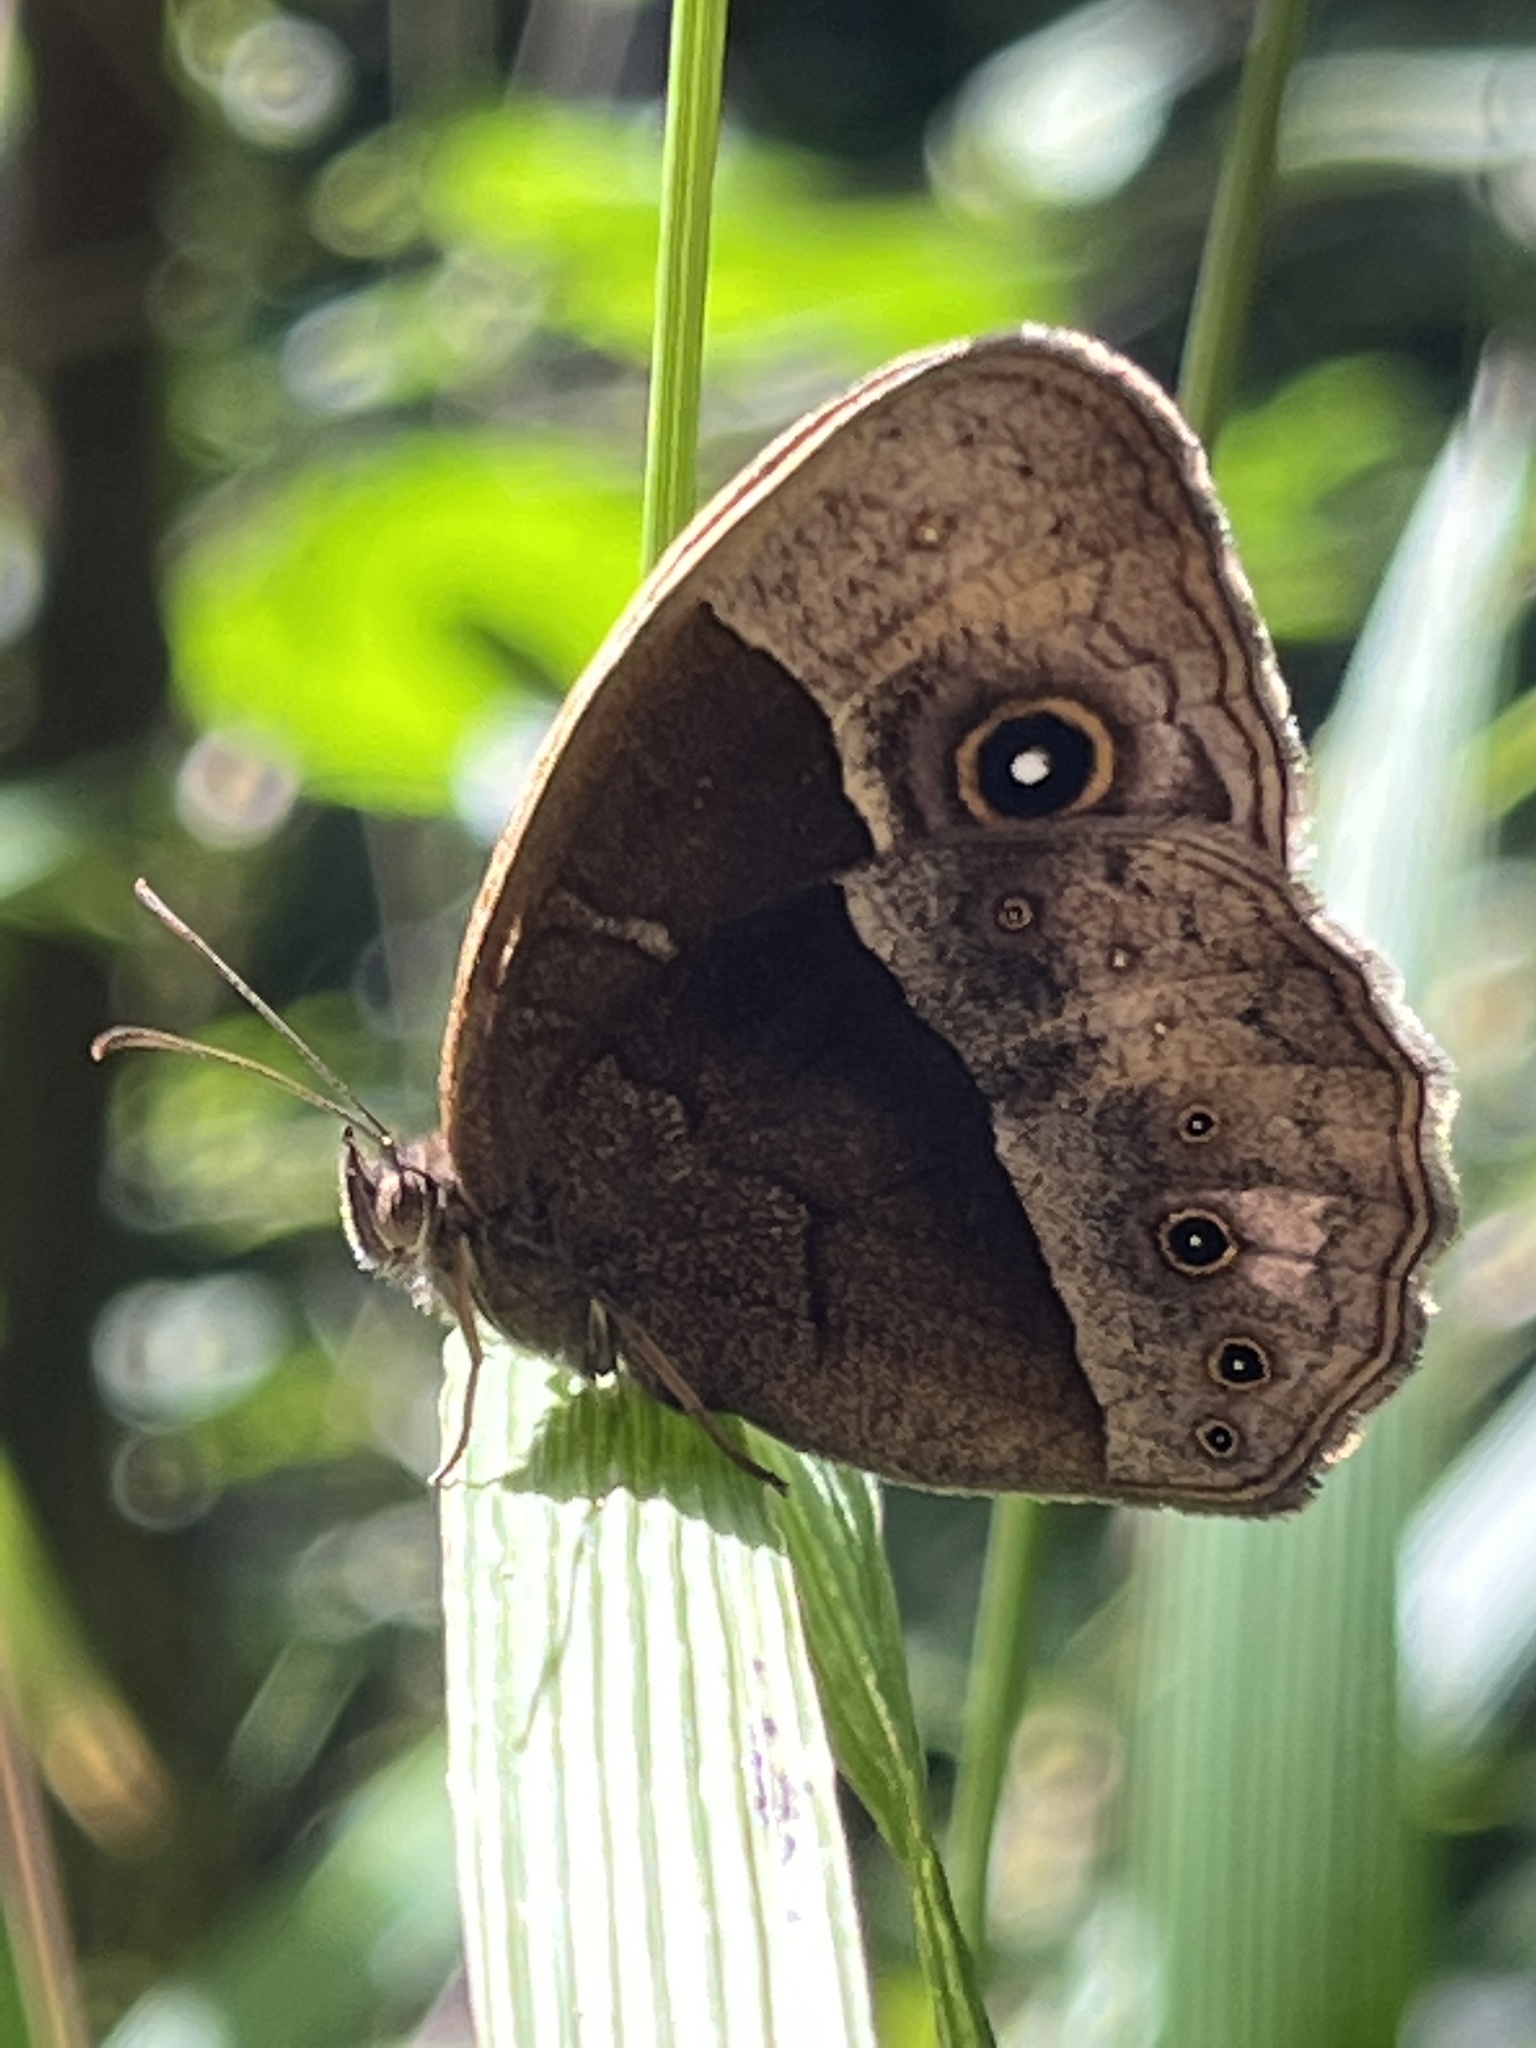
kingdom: Animalia
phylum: Arthropoda
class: Insecta
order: Lepidoptera
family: Nymphalidae
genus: Mycalesis
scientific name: Mycalesis rhacotis
